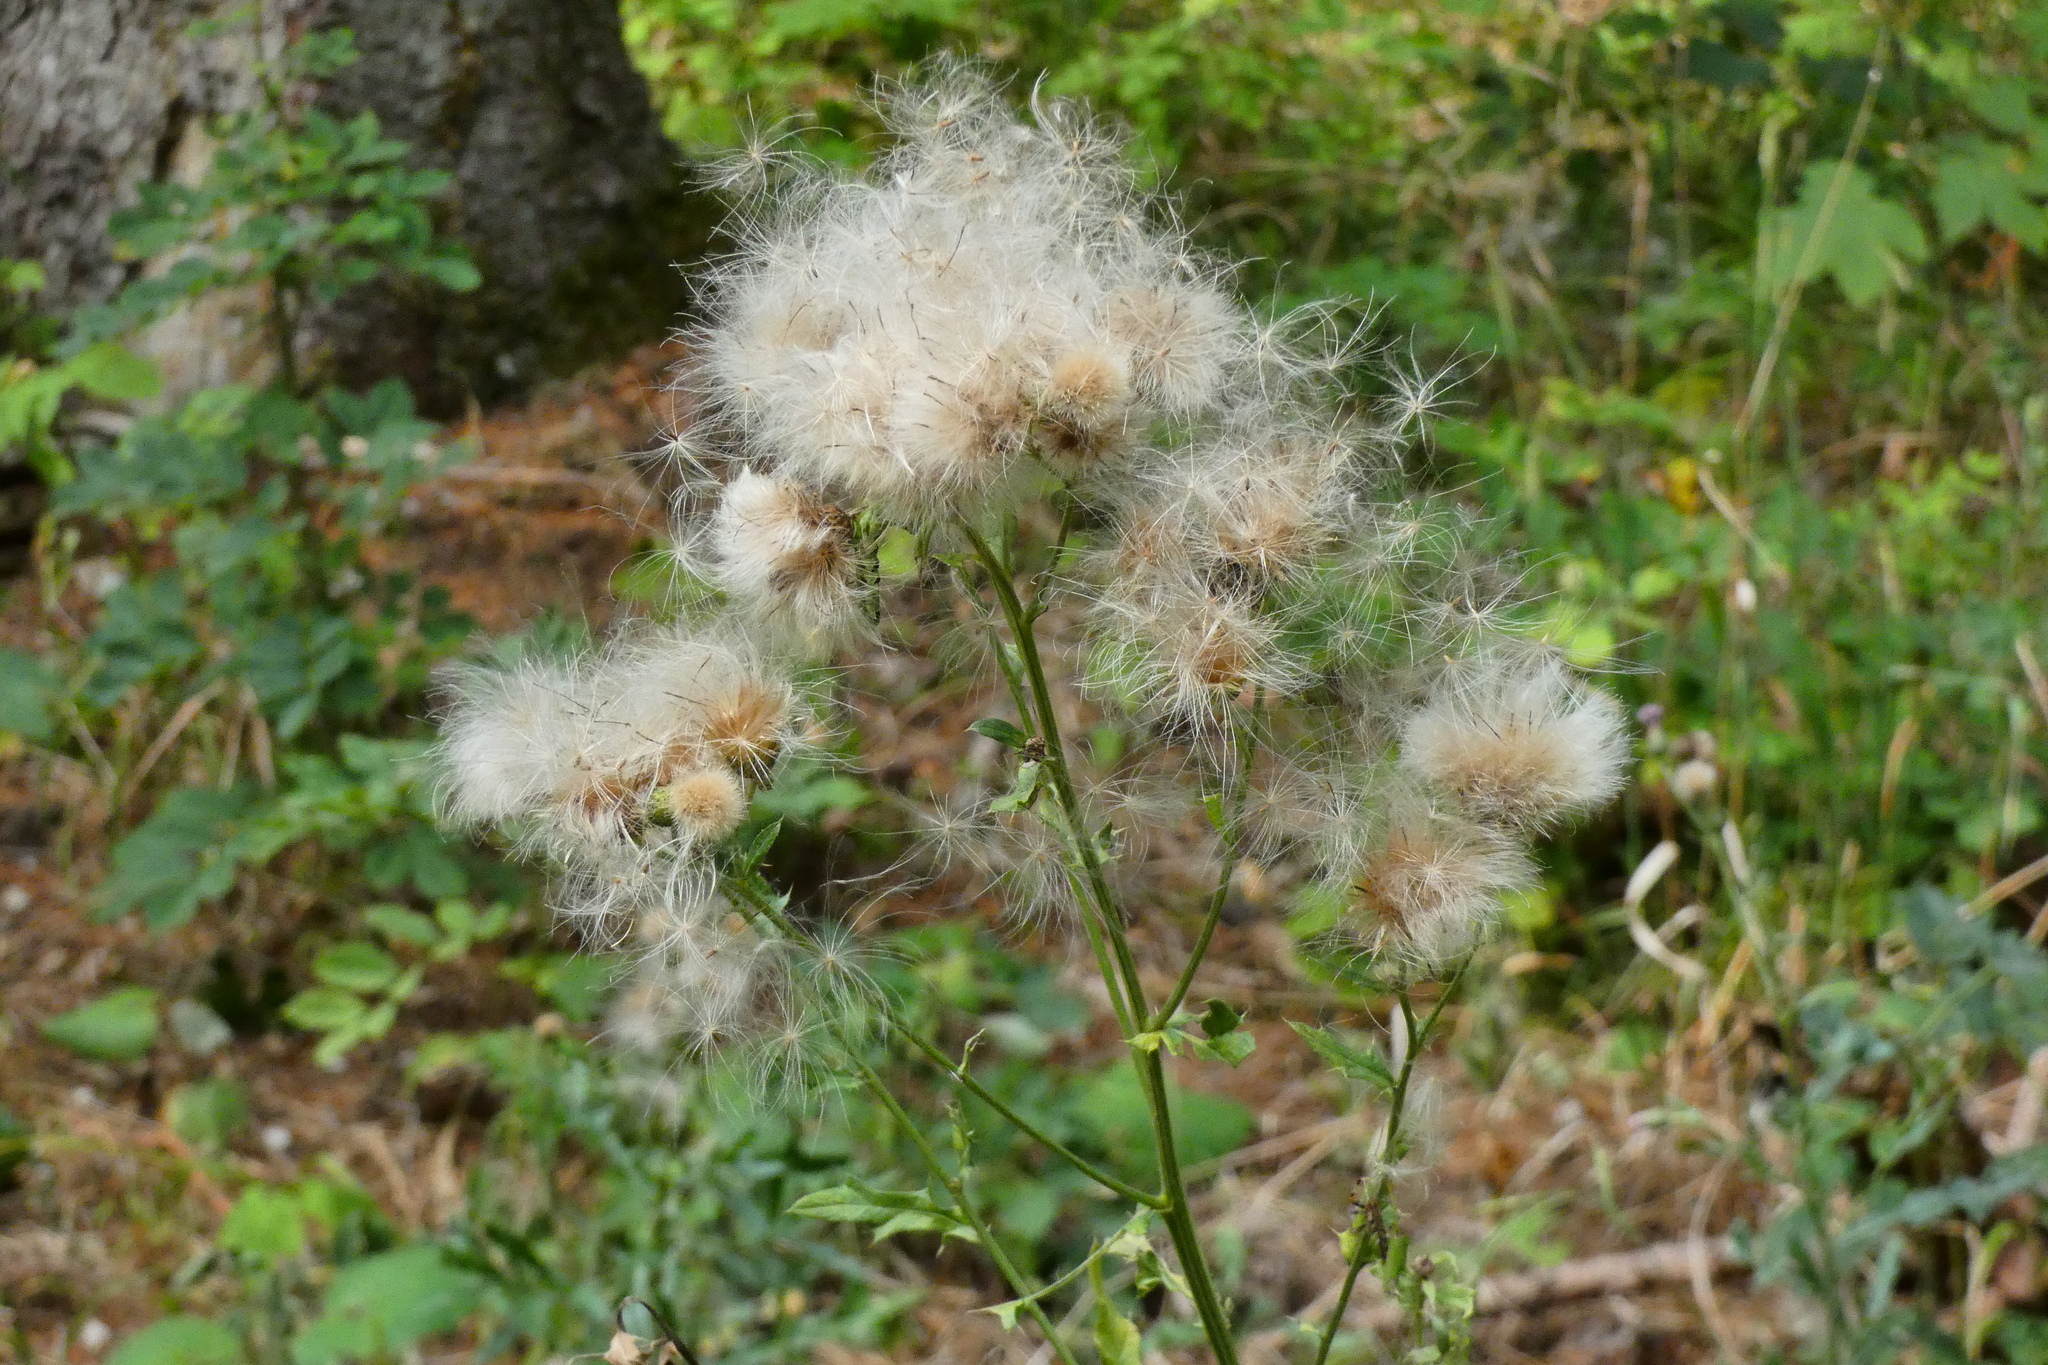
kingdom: Plantae
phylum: Tracheophyta
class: Magnoliopsida
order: Asterales
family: Asteraceae
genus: Cirsium
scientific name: Cirsium arvense
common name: Creeping thistle
